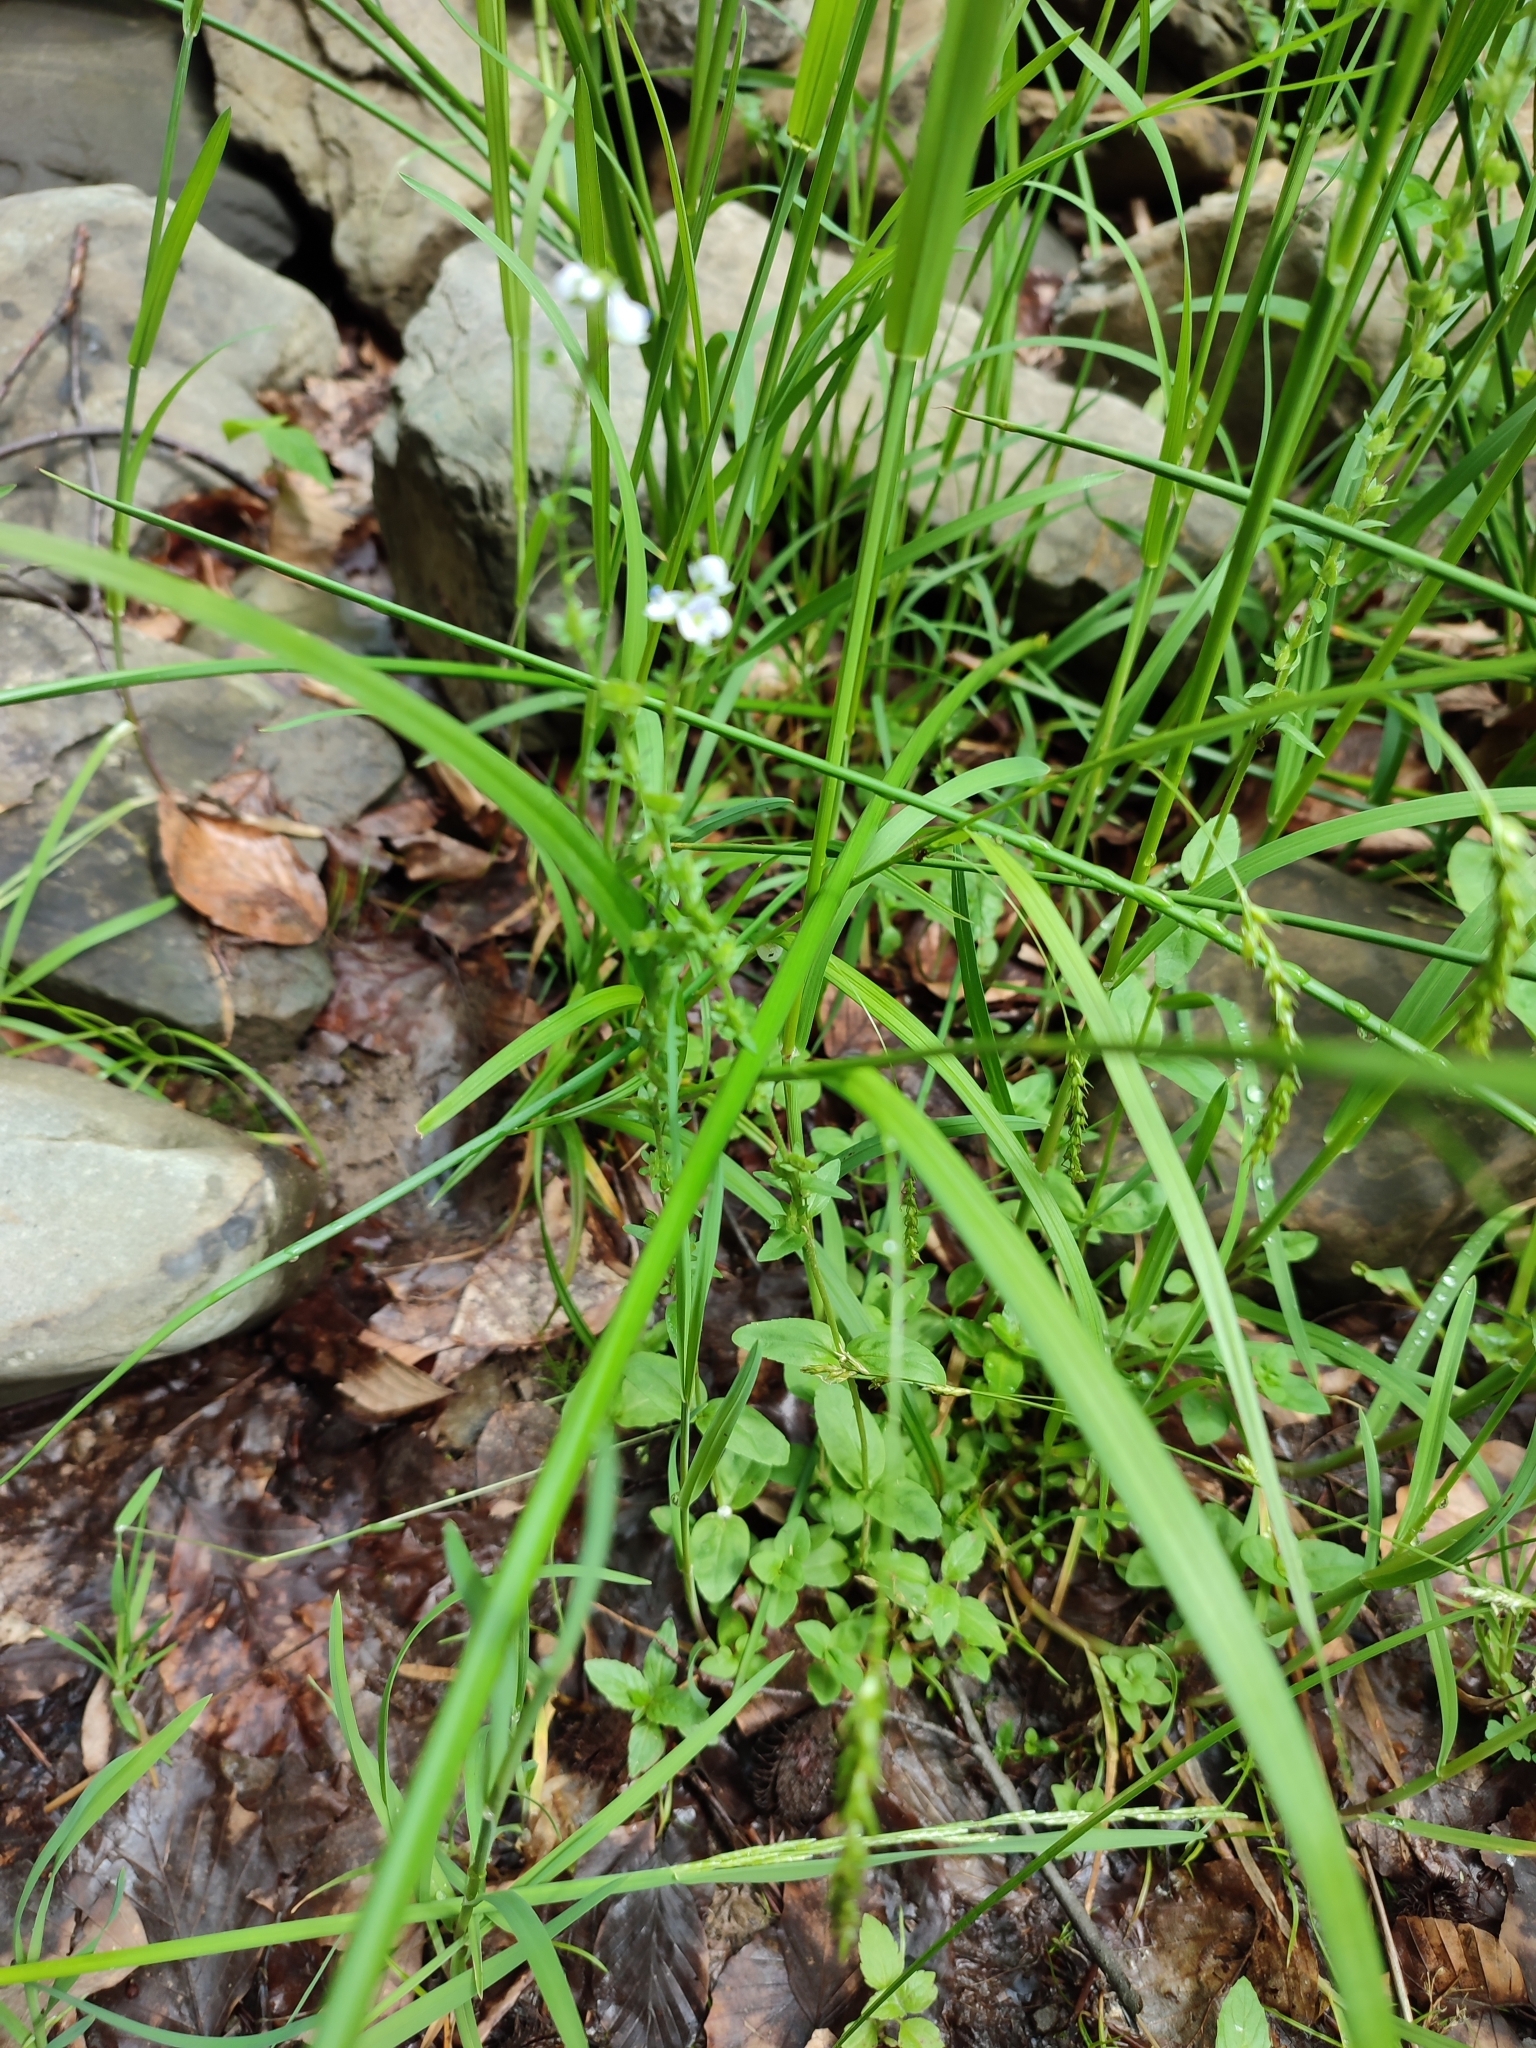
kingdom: Plantae
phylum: Tracheophyta
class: Magnoliopsida
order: Lamiales
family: Plantaginaceae
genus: Veronica
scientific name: Veronica serpyllifolia
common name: Thyme-leaved speedwell
